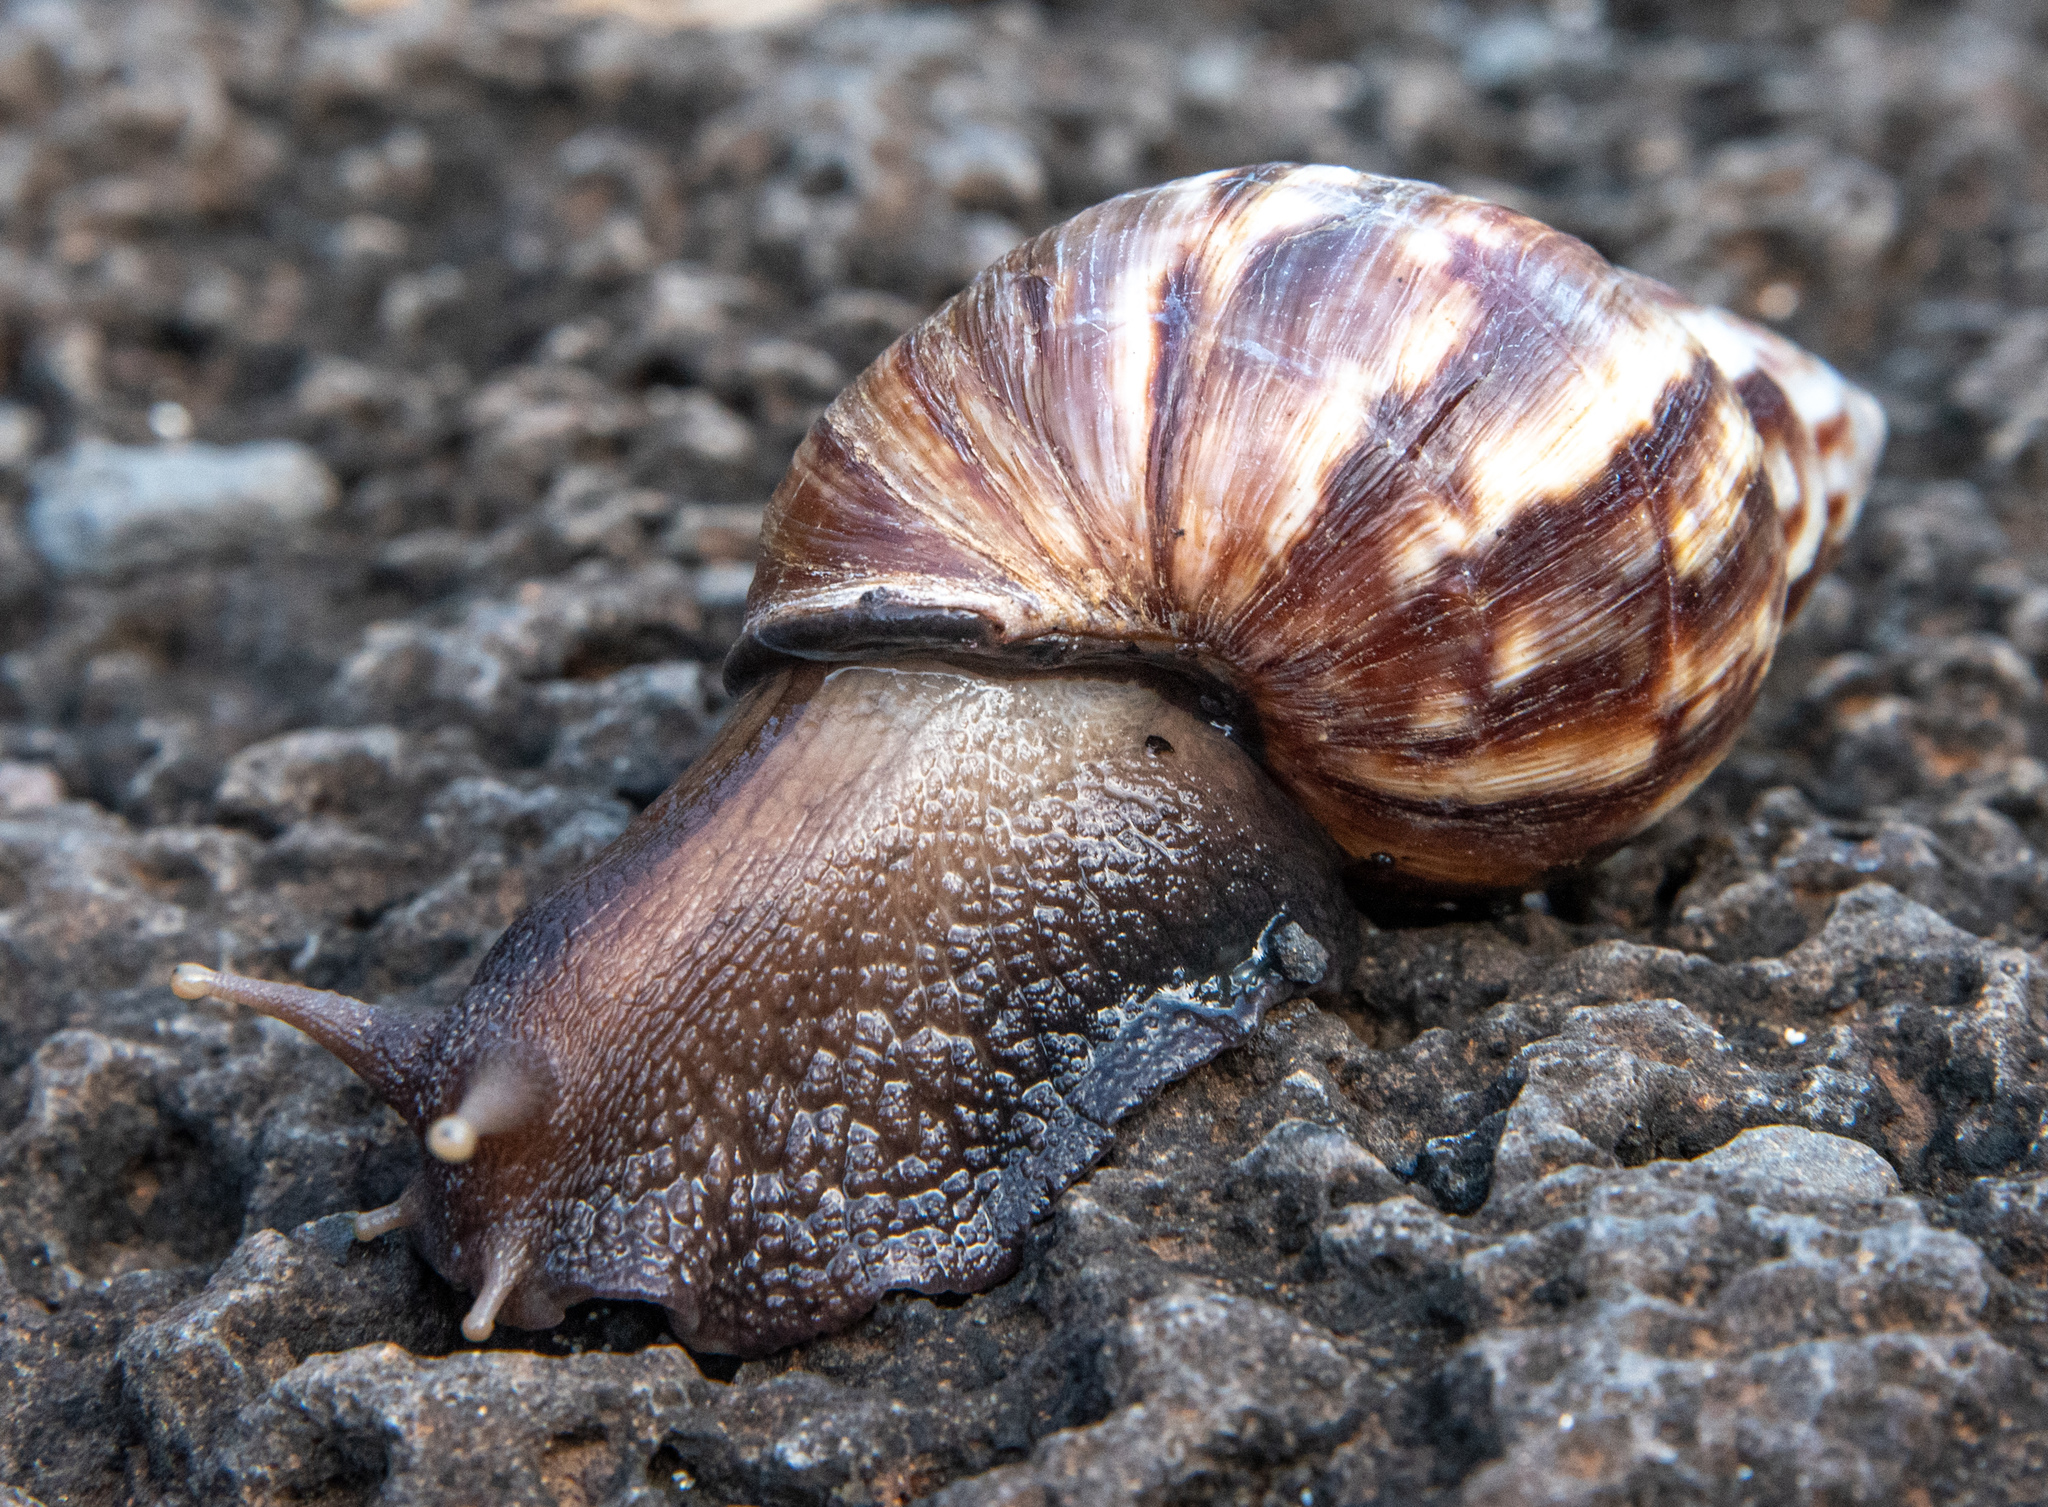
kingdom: Animalia
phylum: Mollusca
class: Gastropoda
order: Stylommatophora
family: Achatinidae
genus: Lissachatina
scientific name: Lissachatina fulica
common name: Giant african snail
